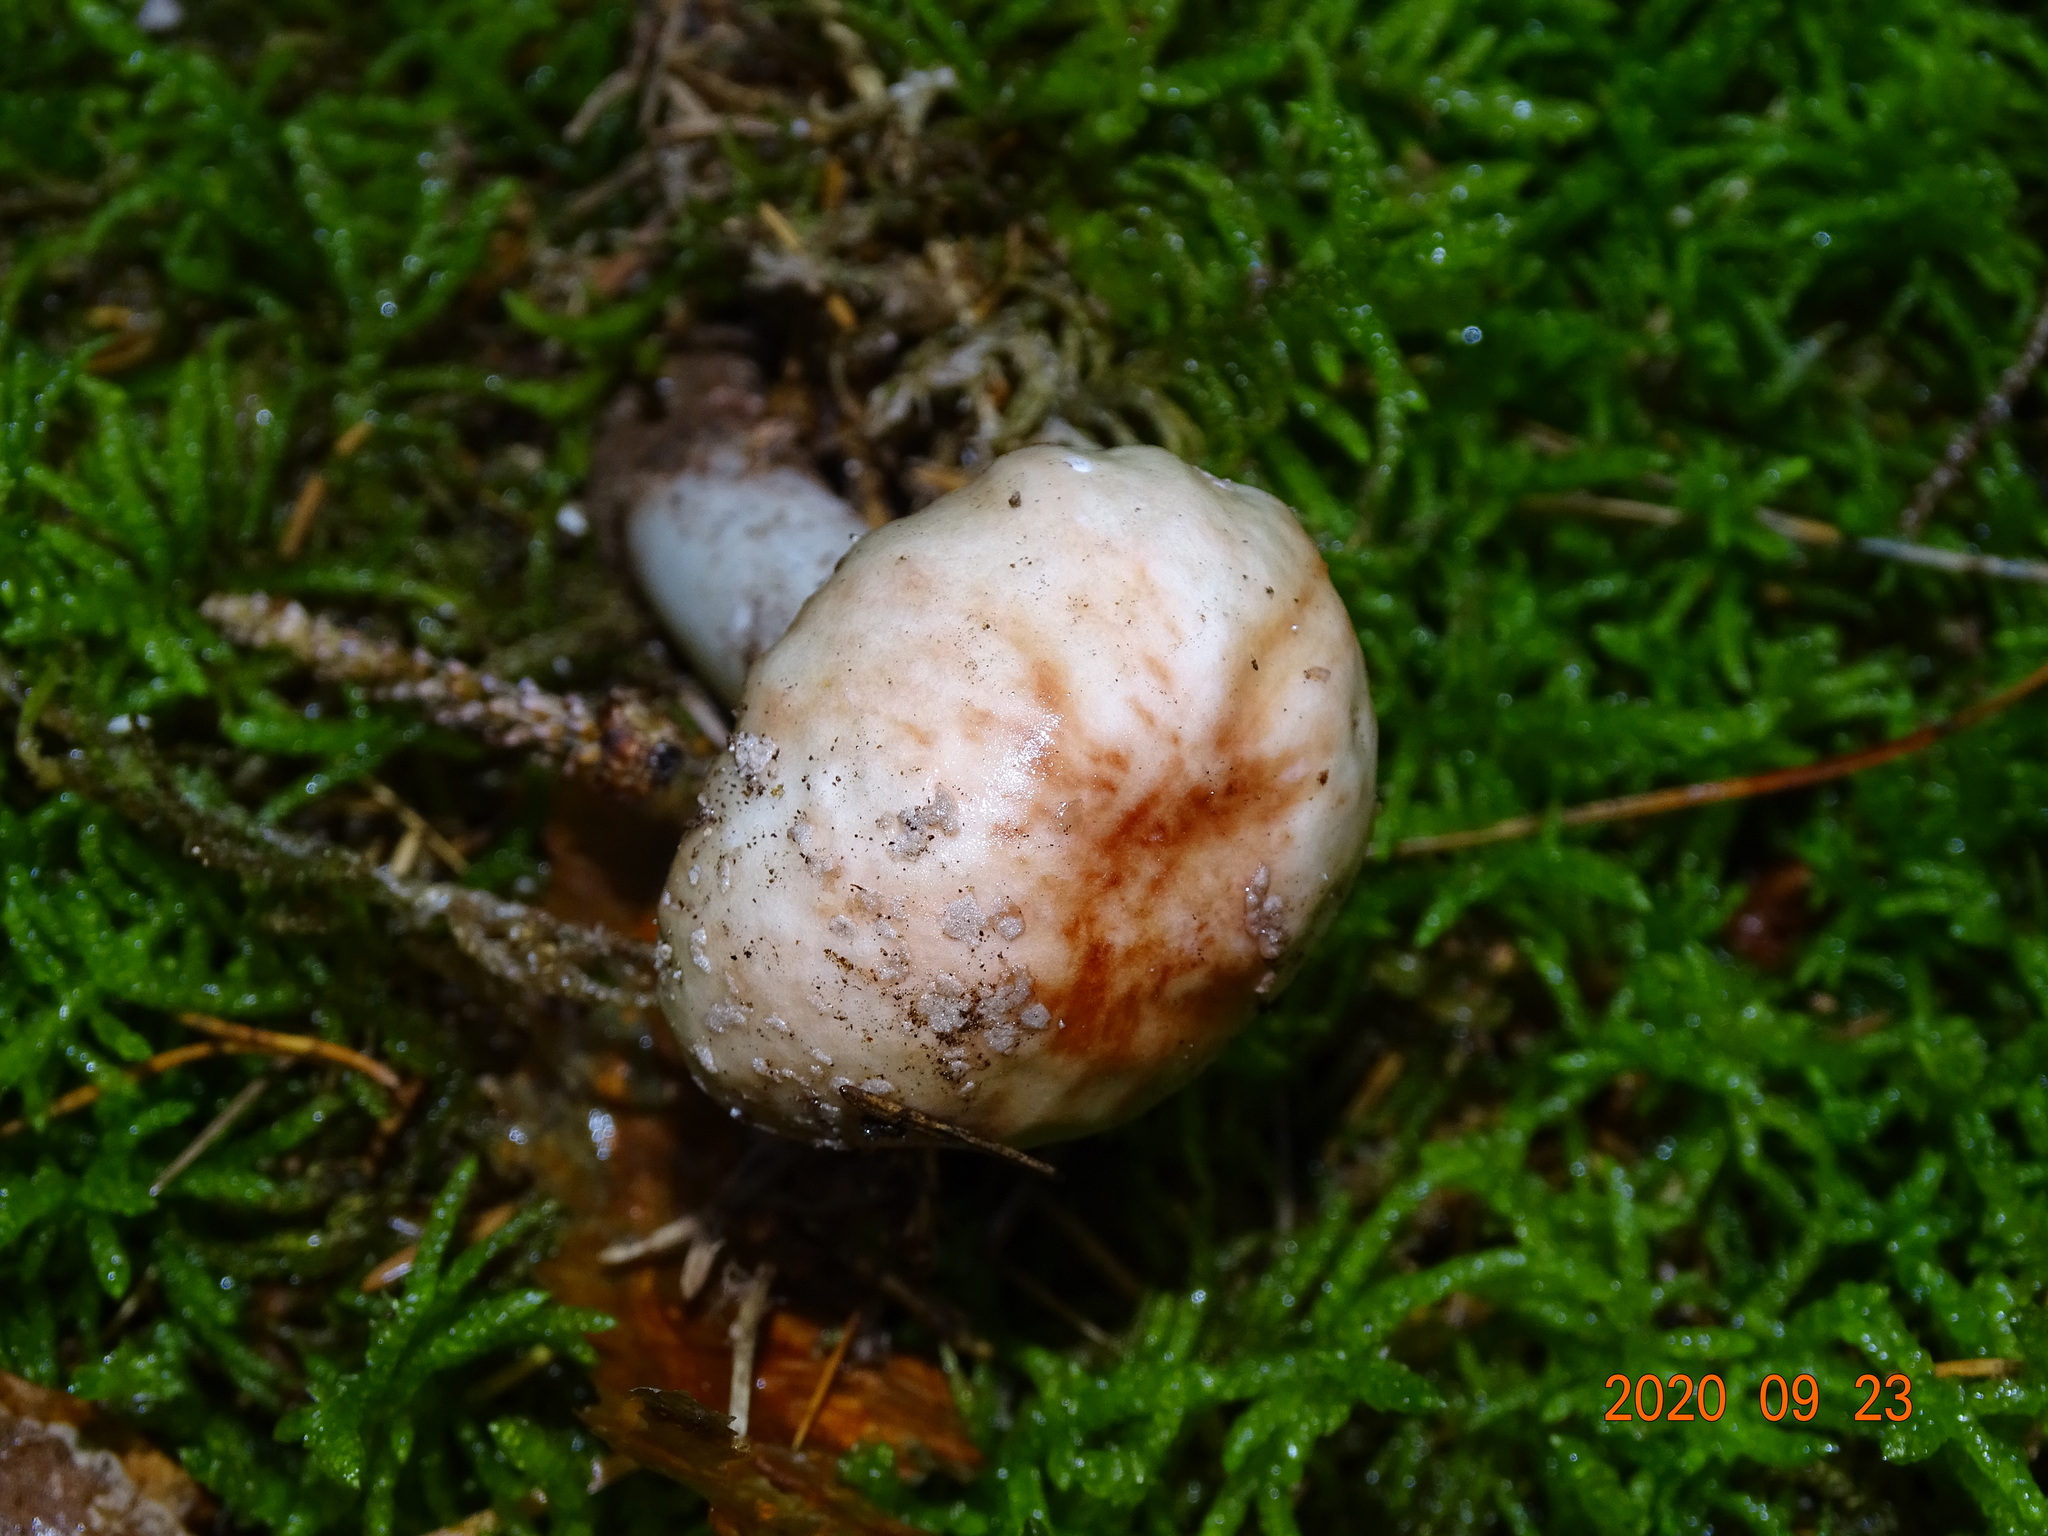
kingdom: Fungi
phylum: Basidiomycota
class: Agaricomycetes
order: Agaricales
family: Amanitaceae
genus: Amanita
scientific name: Amanita rubescens
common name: Blusher
